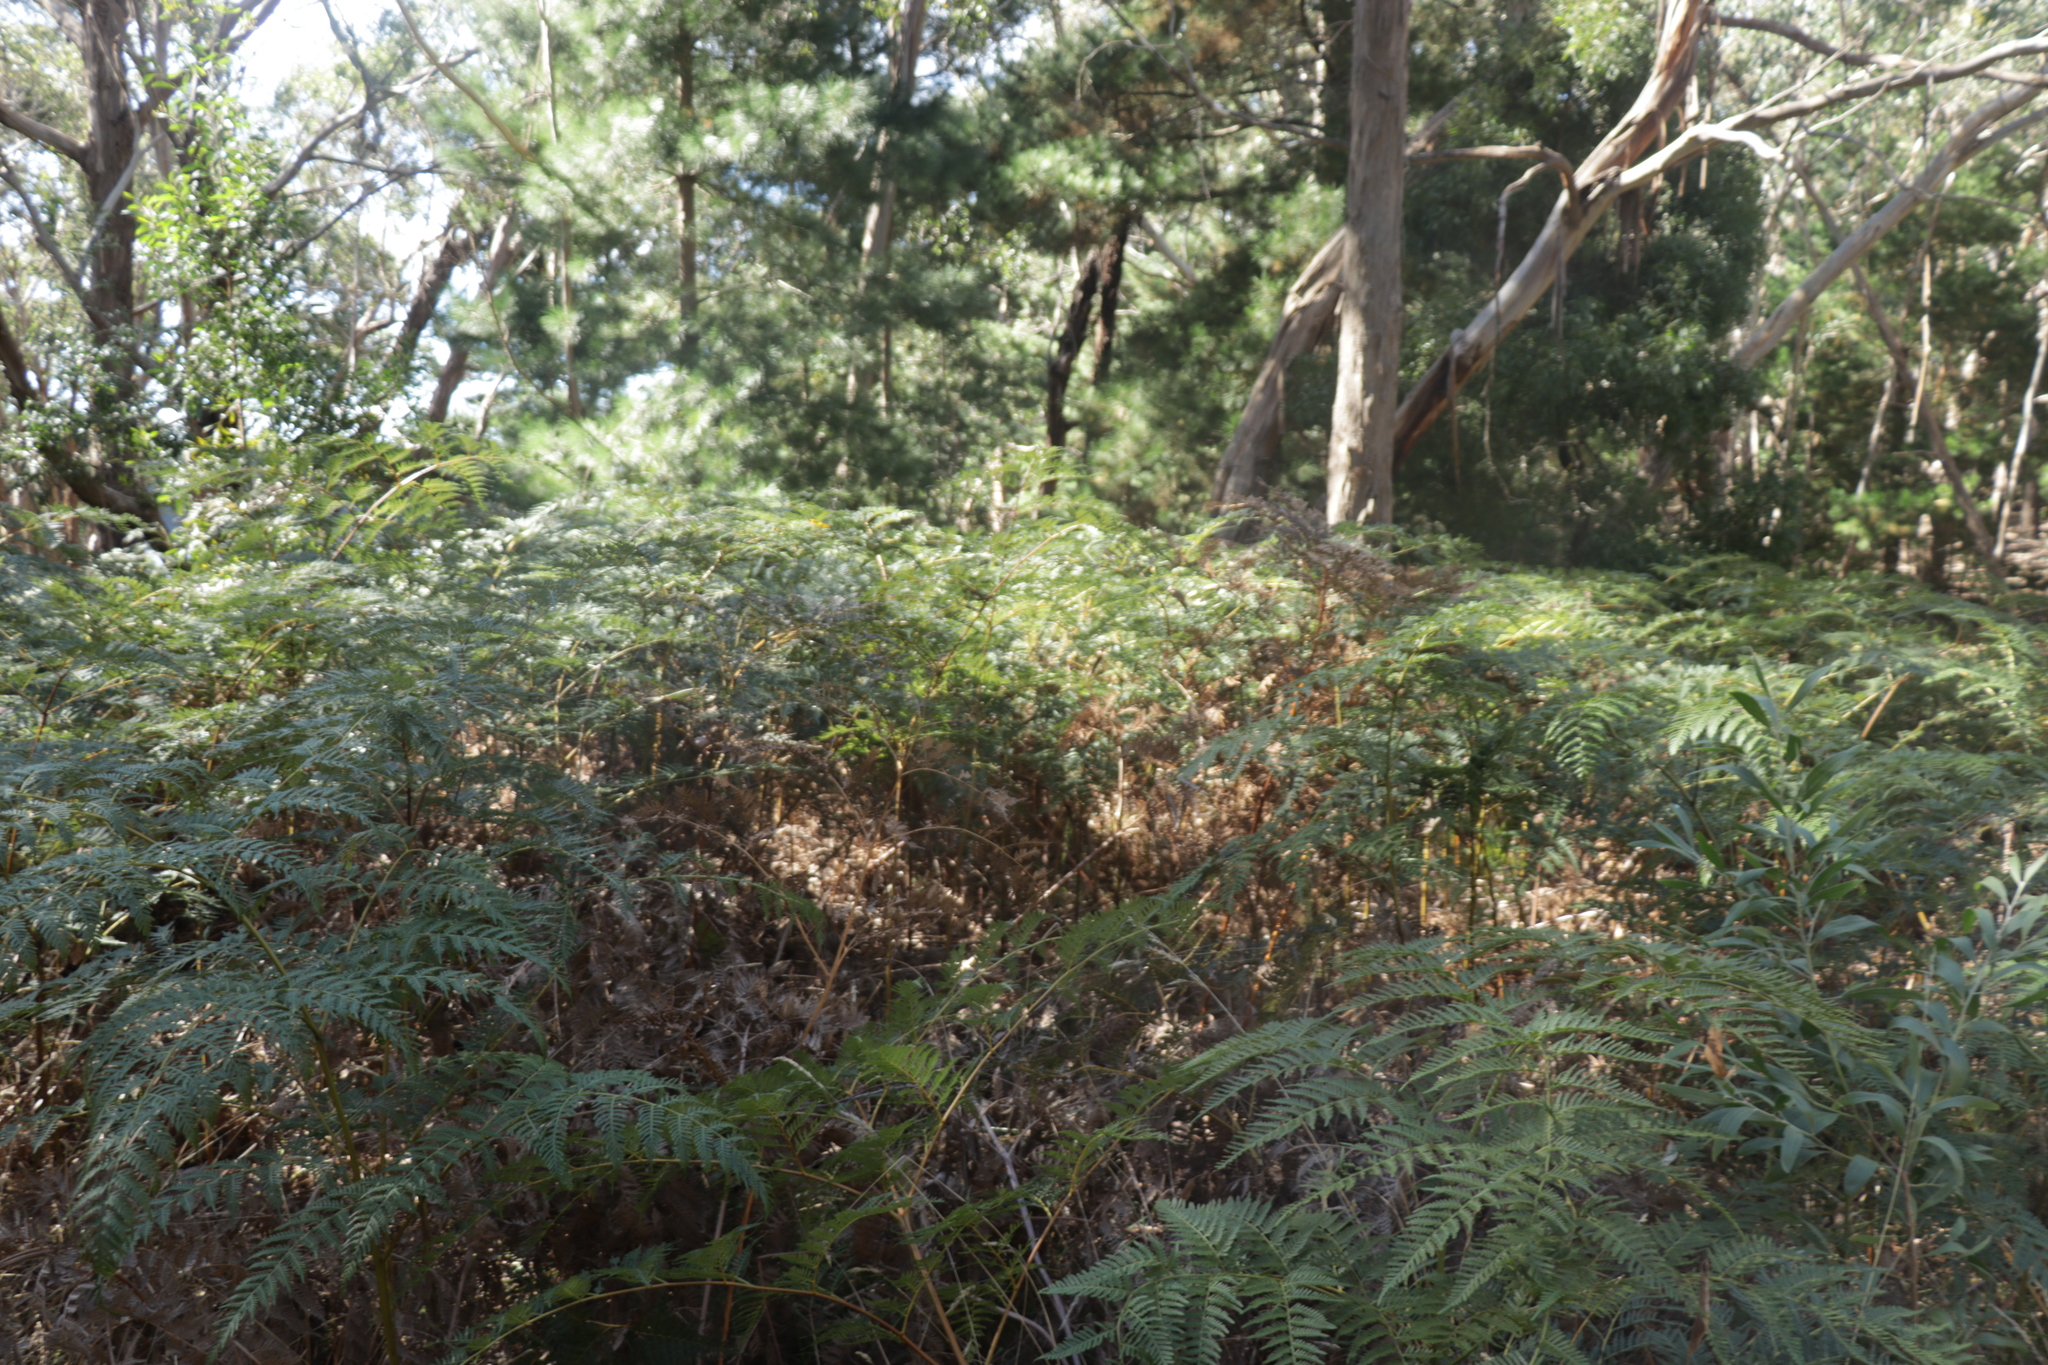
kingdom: Plantae
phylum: Tracheophyta
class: Polypodiopsida
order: Polypodiales
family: Dennstaedtiaceae
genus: Pteridium
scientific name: Pteridium esculentum
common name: Bracken fern
